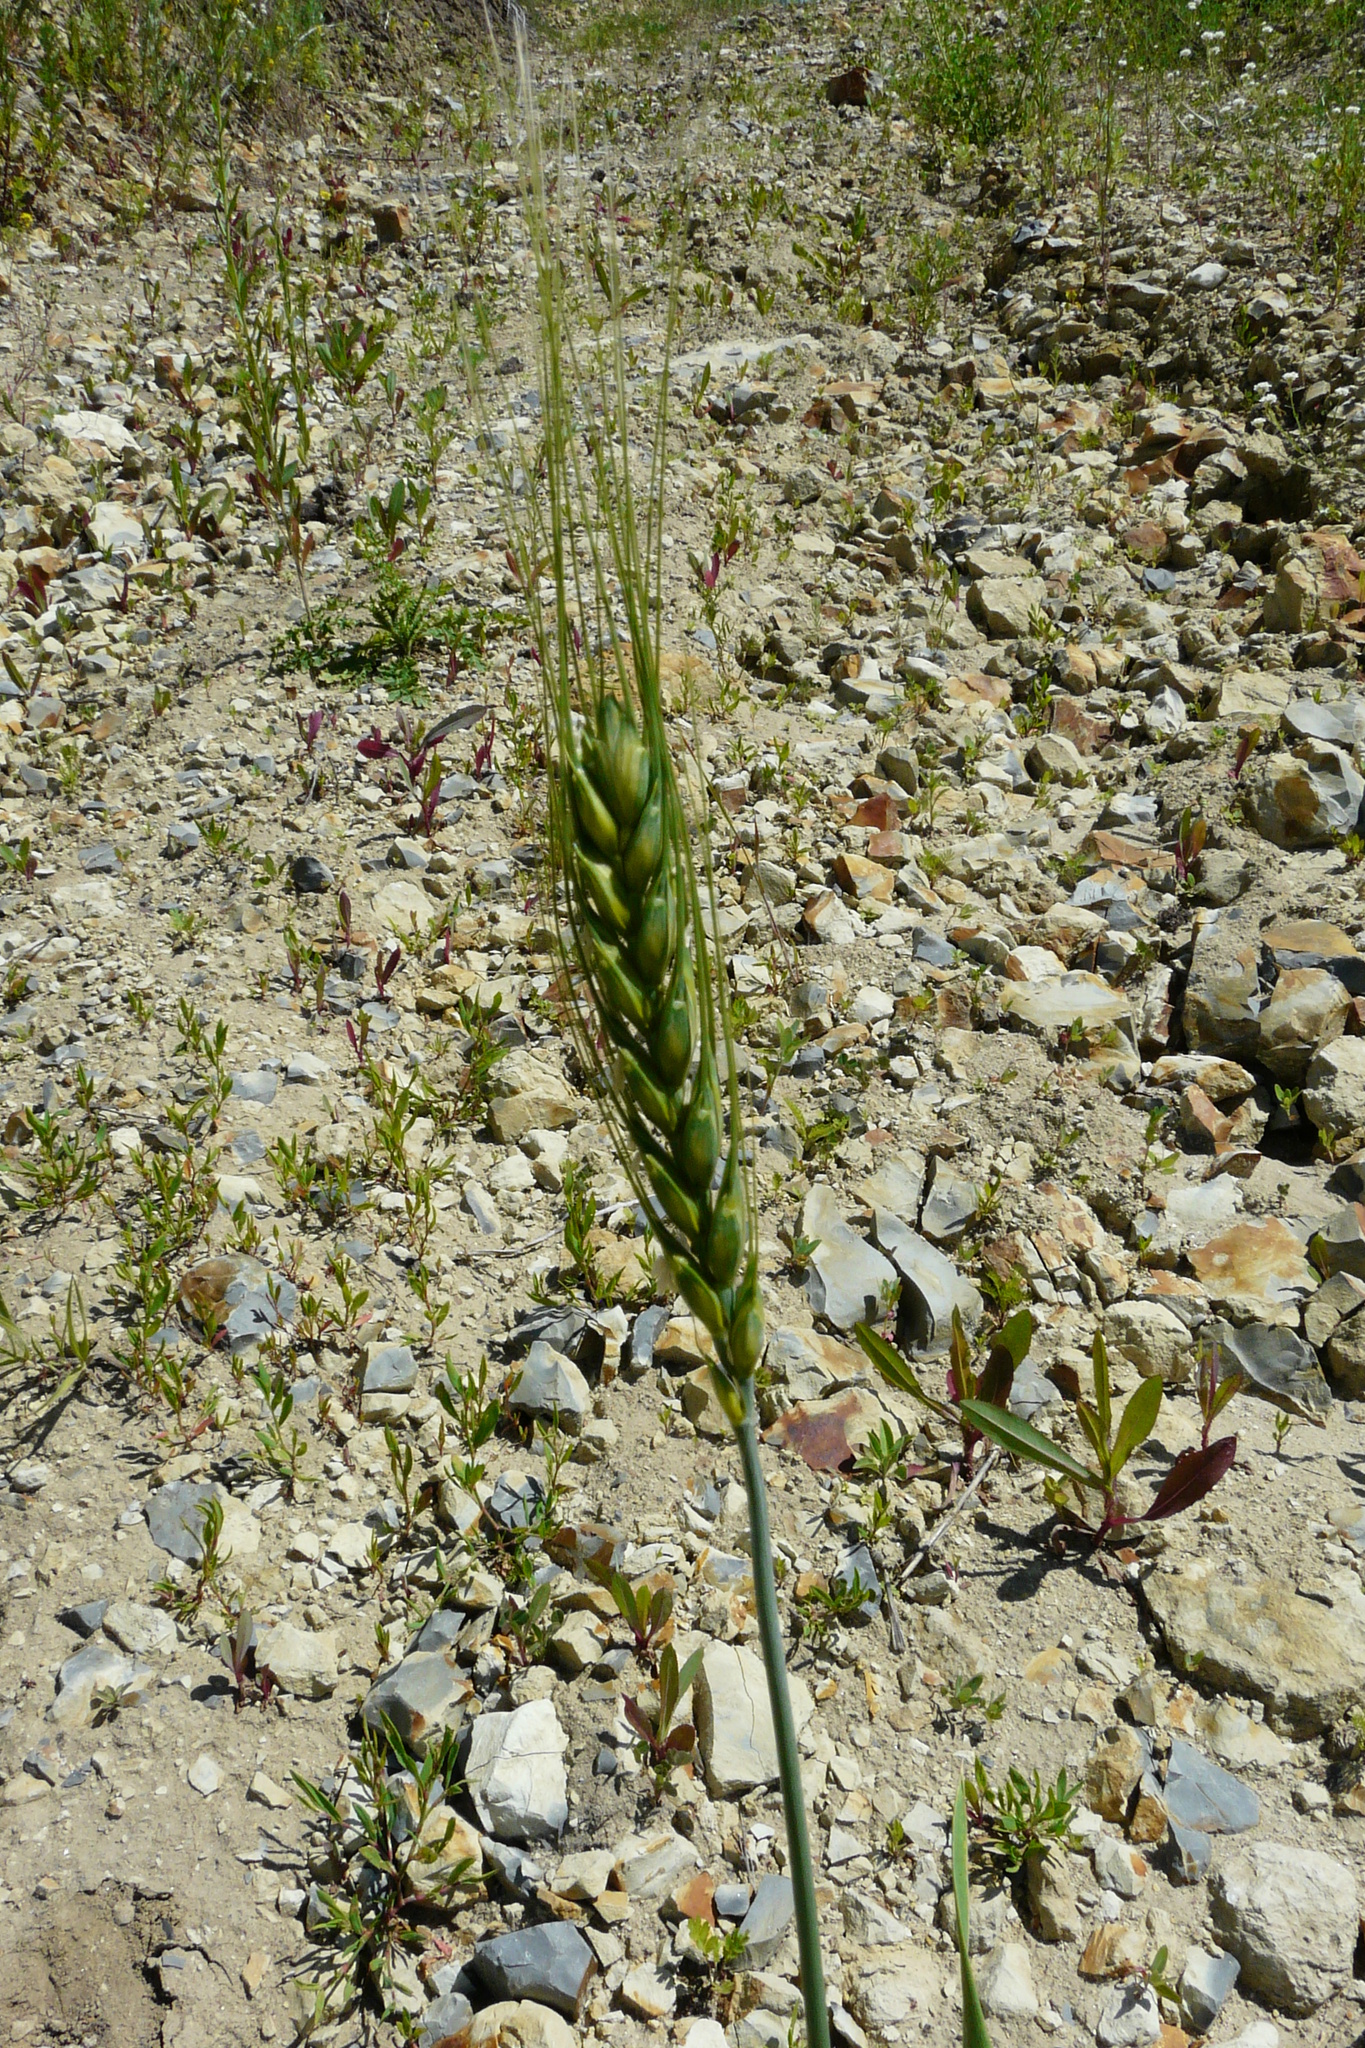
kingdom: Plantae
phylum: Tracheophyta
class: Liliopsida
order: Poales
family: Poaceae
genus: Triticum
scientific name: Triticum aestivum
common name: Common wheat
